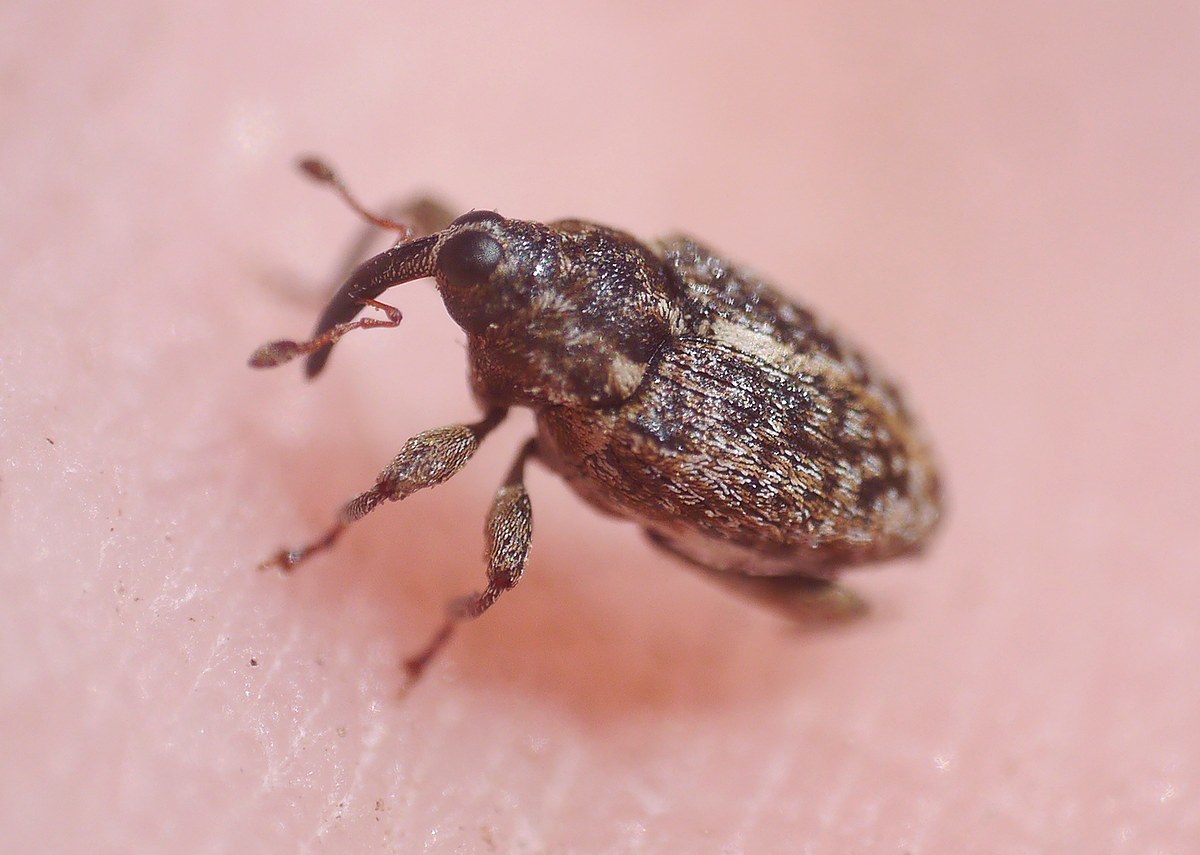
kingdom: Animalia
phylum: Arthropoda
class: Insecta
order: Coleoptera
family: Curculionidae
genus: Poecilma
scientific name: Poecilma
